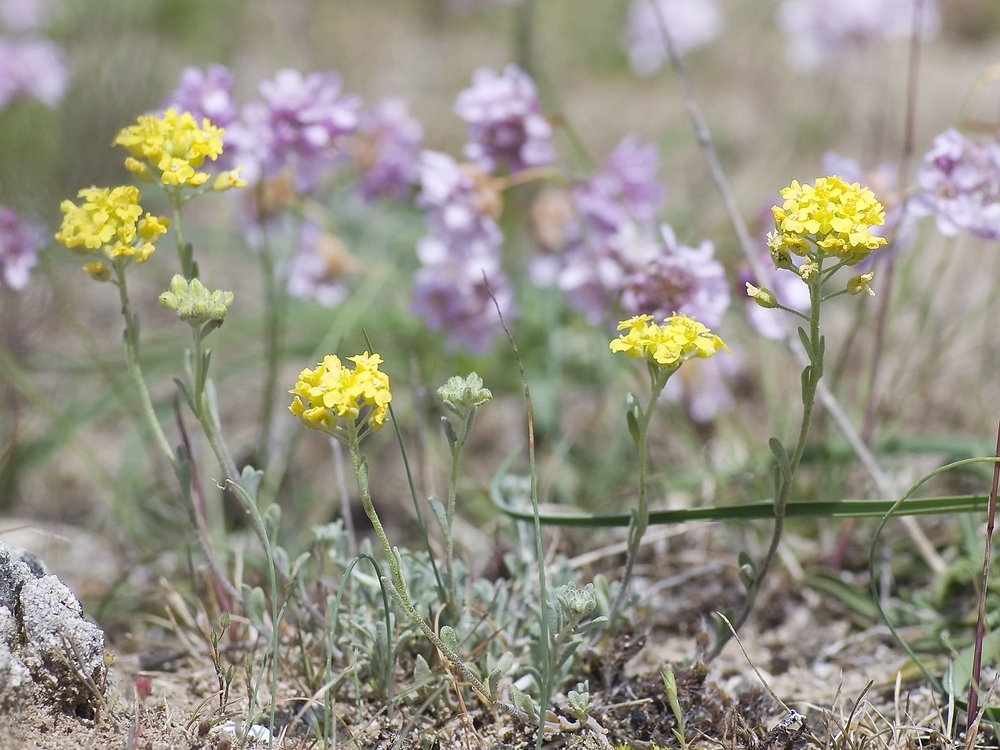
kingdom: Plantae
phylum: Tracheophyta
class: Magnoliopsida
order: Brassicales
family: Brassicaceae
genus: Alyssum
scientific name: Alyssum montanum
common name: Mountain alison
